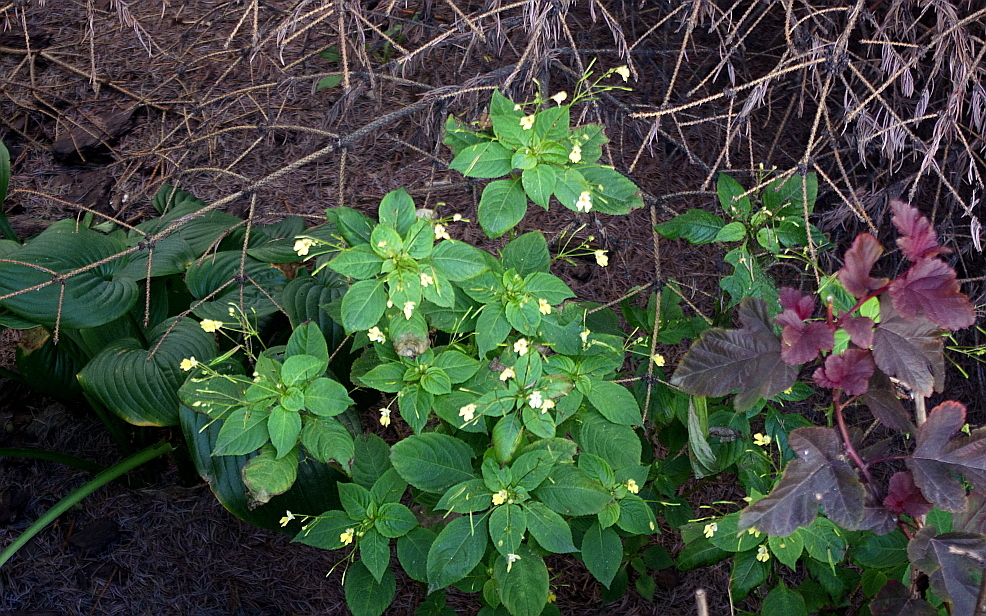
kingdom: Plantae
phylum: Tracheophyta
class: Magnoliopsida
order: Ericales
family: Balsaminaceae
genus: Impatiens
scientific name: Impatiens parviflora
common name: Small balsam
